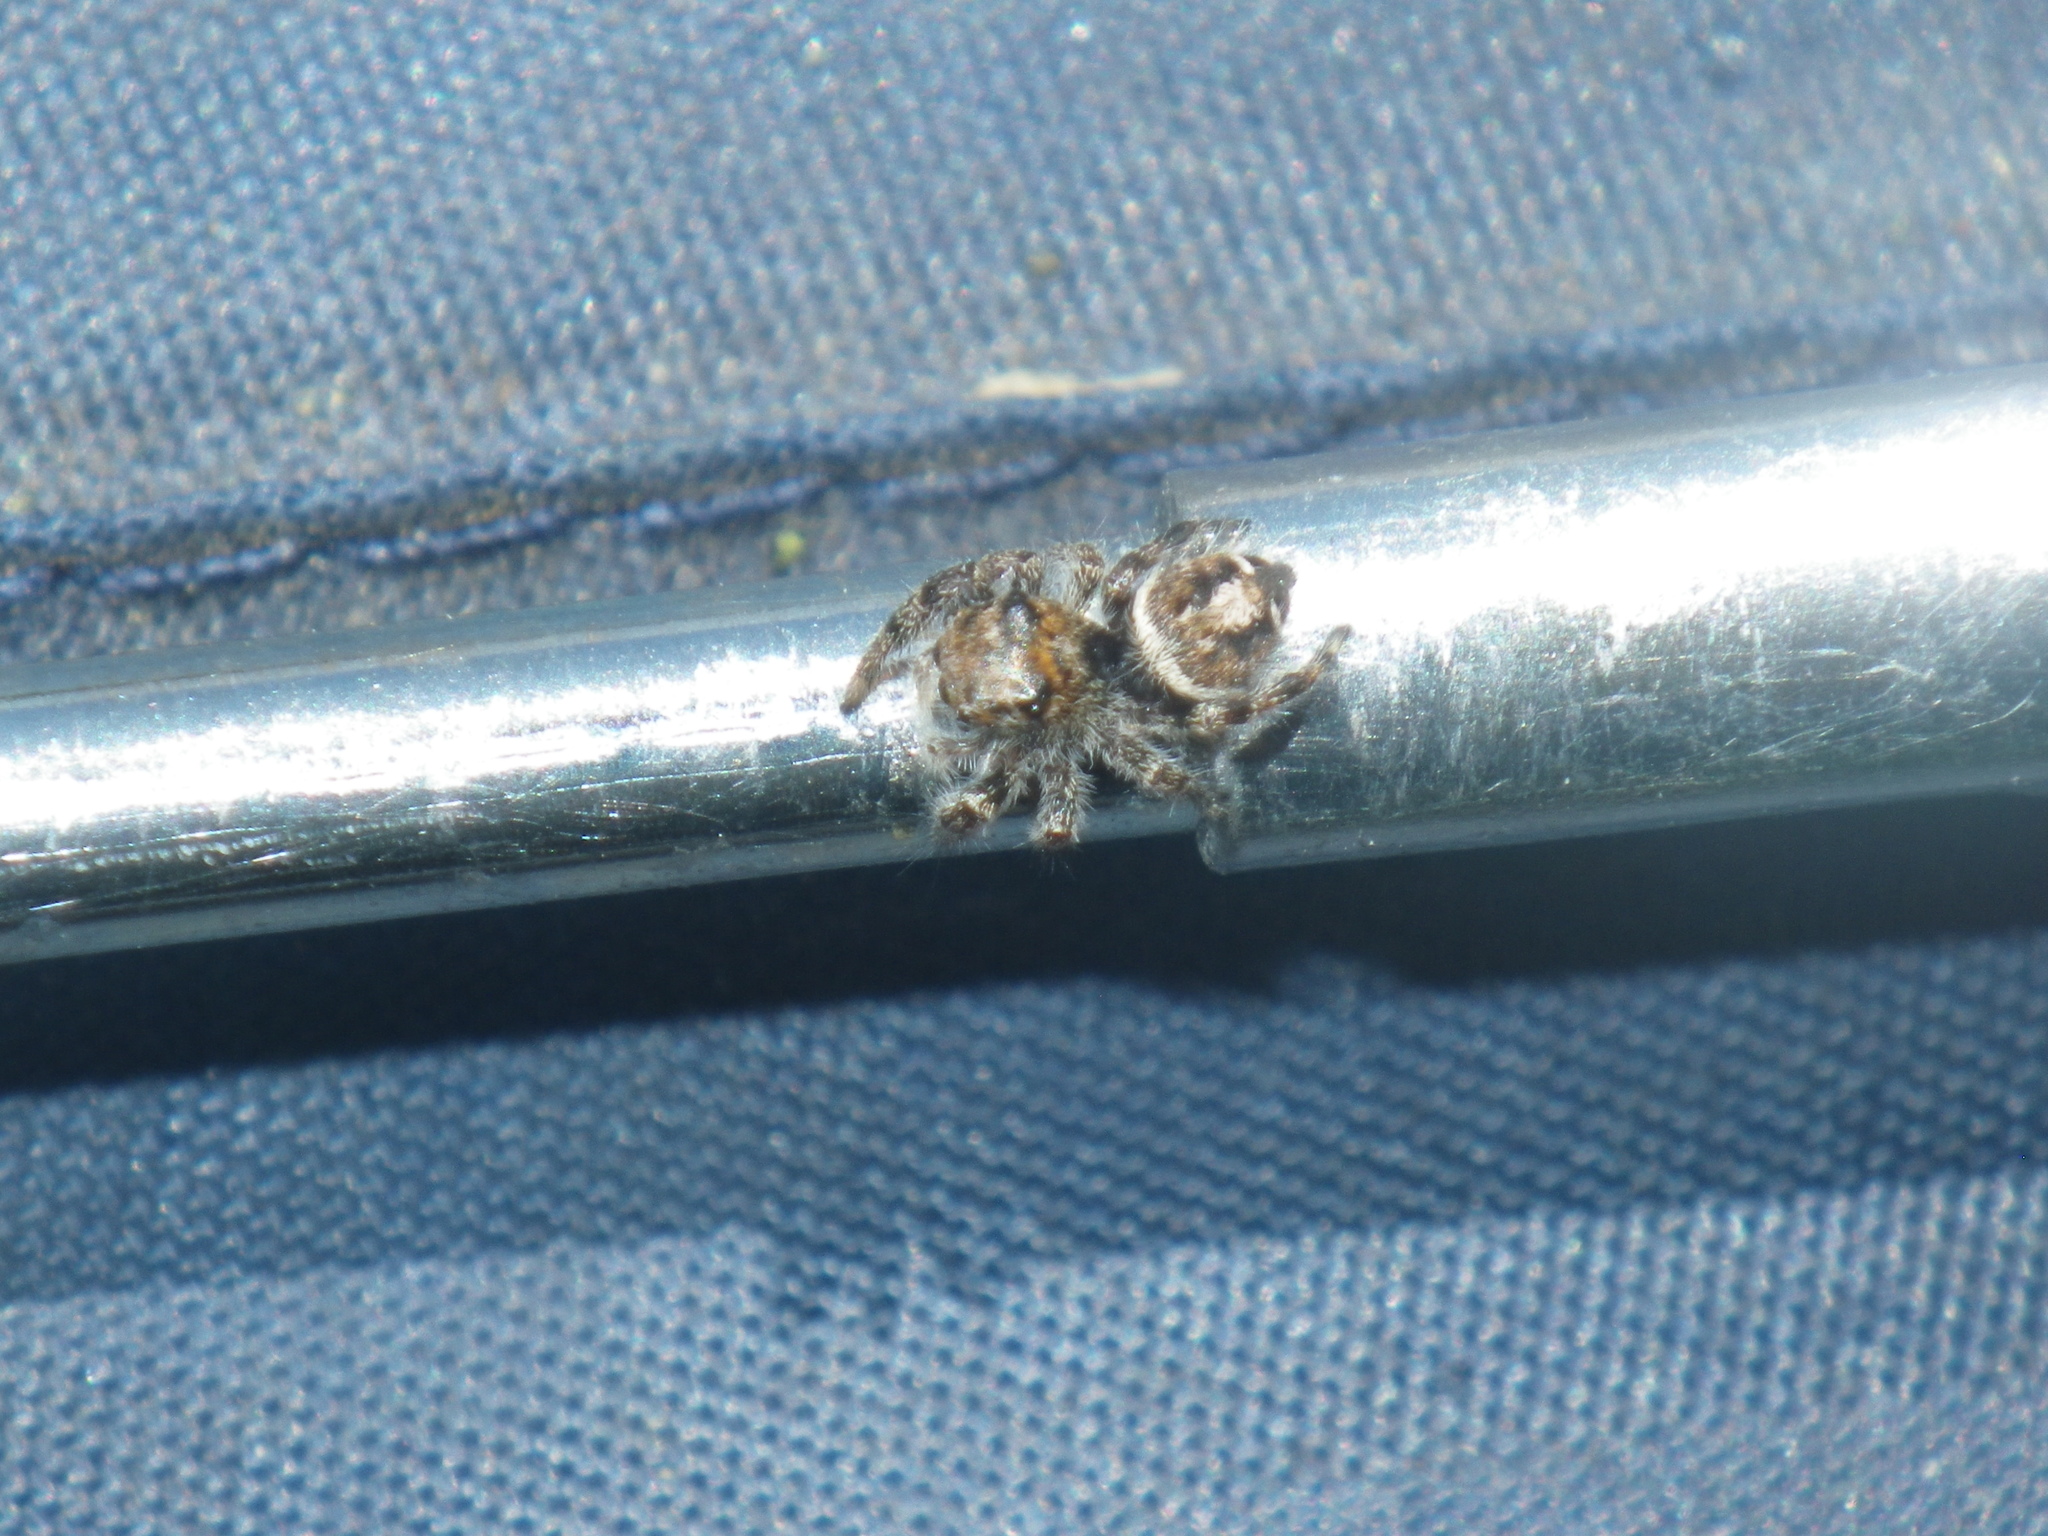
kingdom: Animalia
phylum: Arthropoda
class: Arachnida
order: Araneae
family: Salticidae
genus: Phidippus
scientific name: Phidippus comatus
